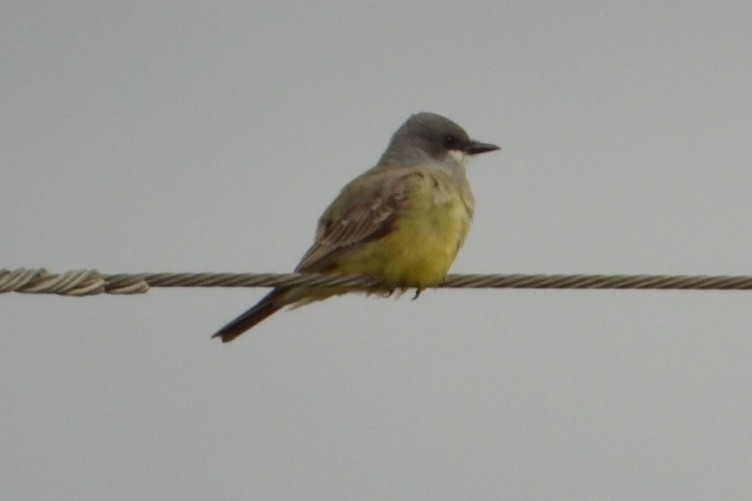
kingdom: Animalia
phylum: Chordata
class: Aves
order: Passeriformes
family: Tyrannidae
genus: Tyrannus
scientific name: Tyrannus vociferans
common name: Cassin's kingbird
